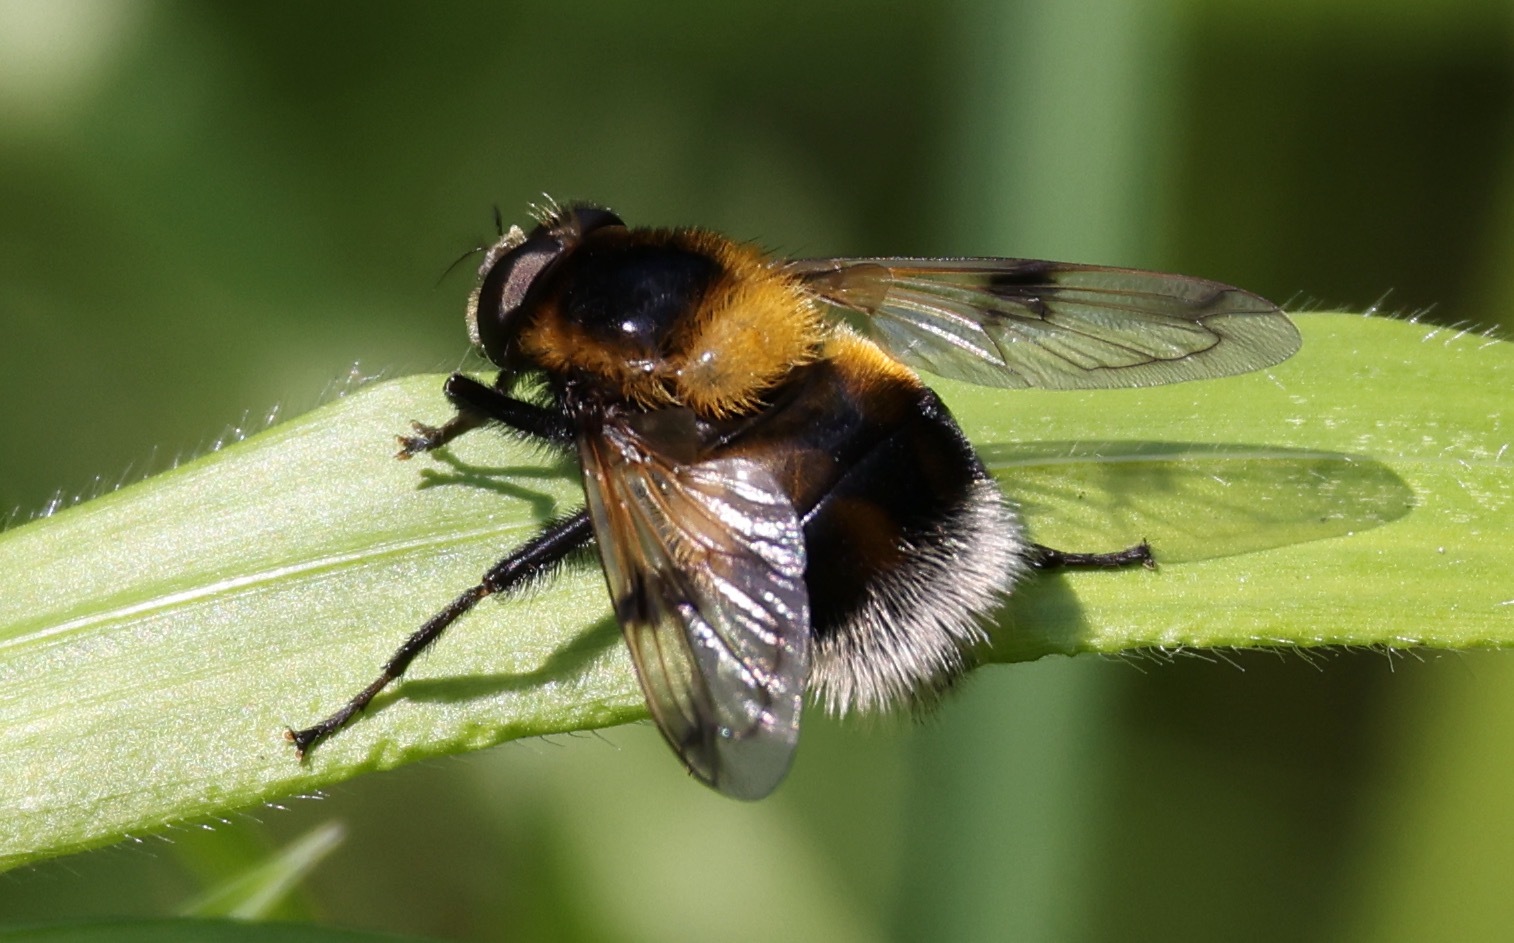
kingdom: Animalia
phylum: Arthropoda
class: Insecta
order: Diptera
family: Syrphidae
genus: Volucella
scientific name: Volucella bombylans
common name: Bumble bee hover fly
